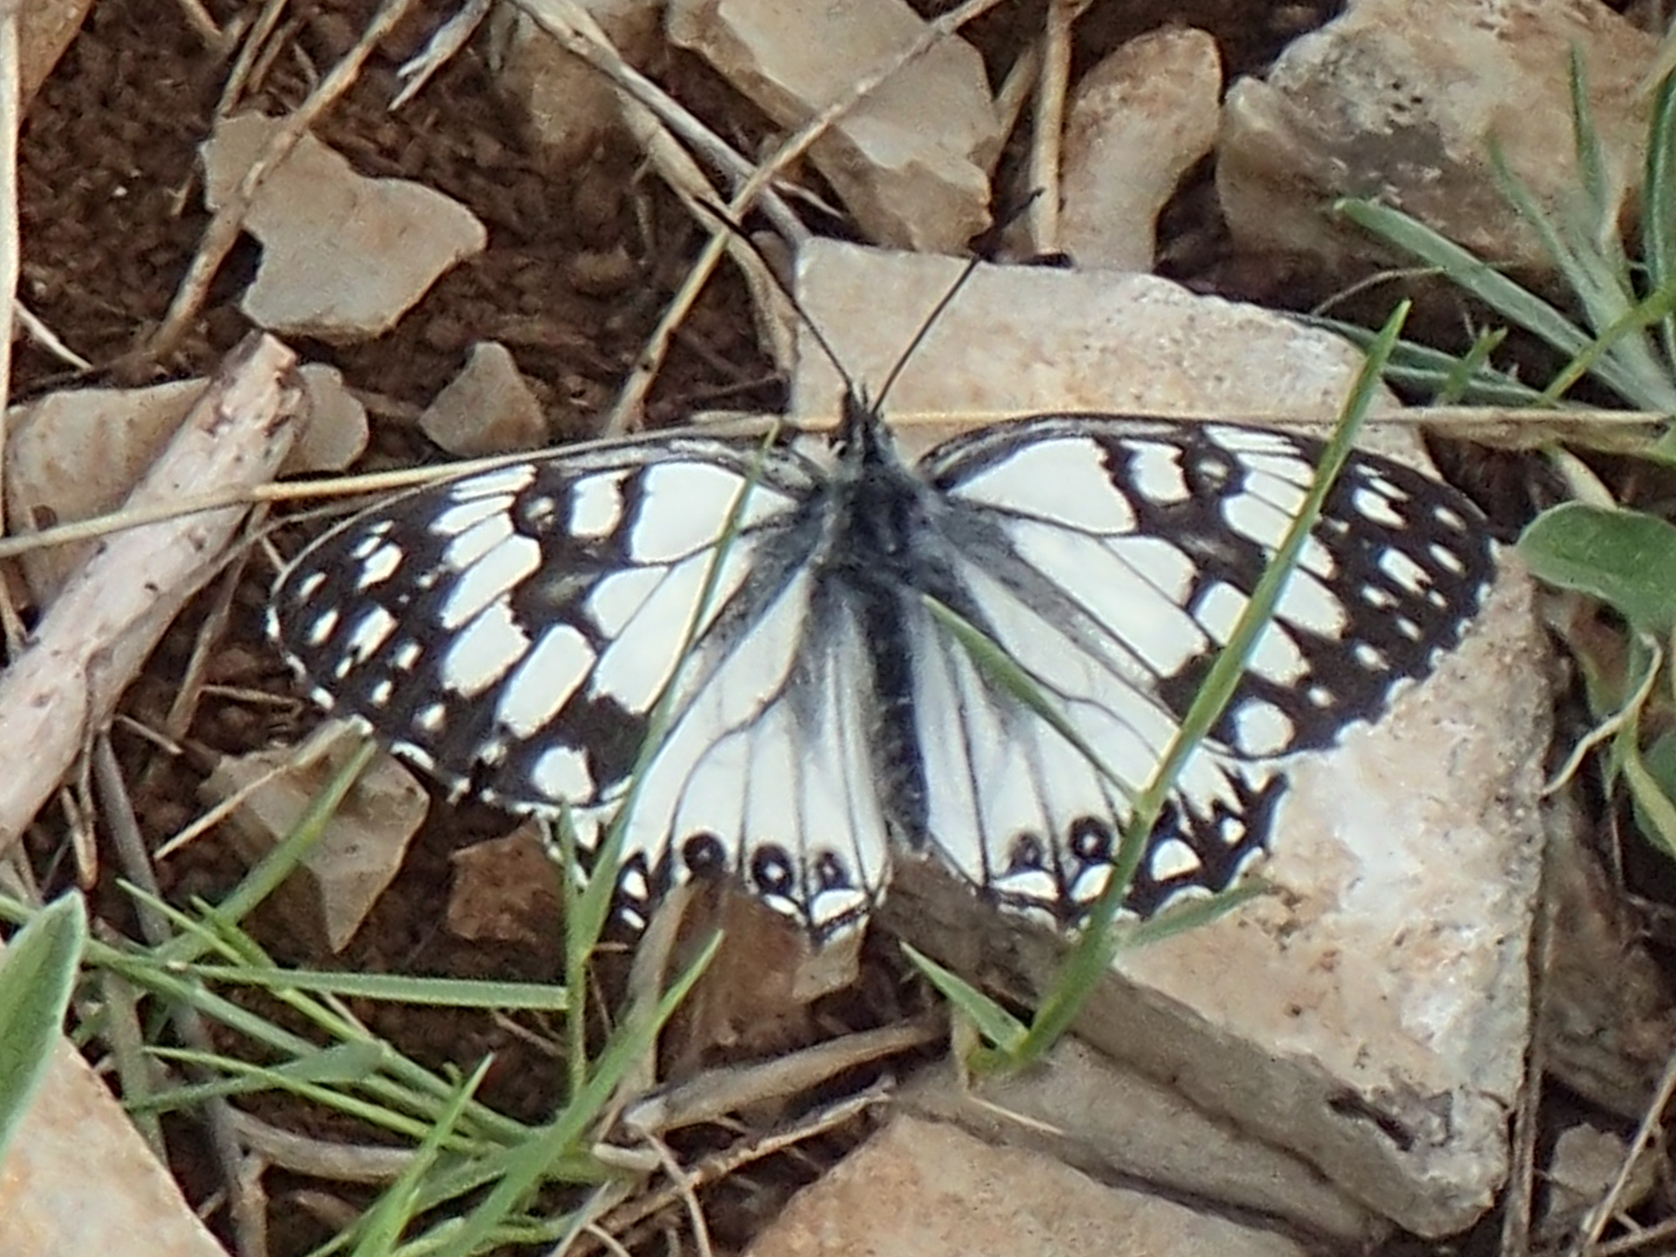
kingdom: Animalia
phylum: Arthropoda
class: Insecta
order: Lepidoptera
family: Nymphalidae
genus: Melanargia
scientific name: Melanargia occitanica
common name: Western marbled white
